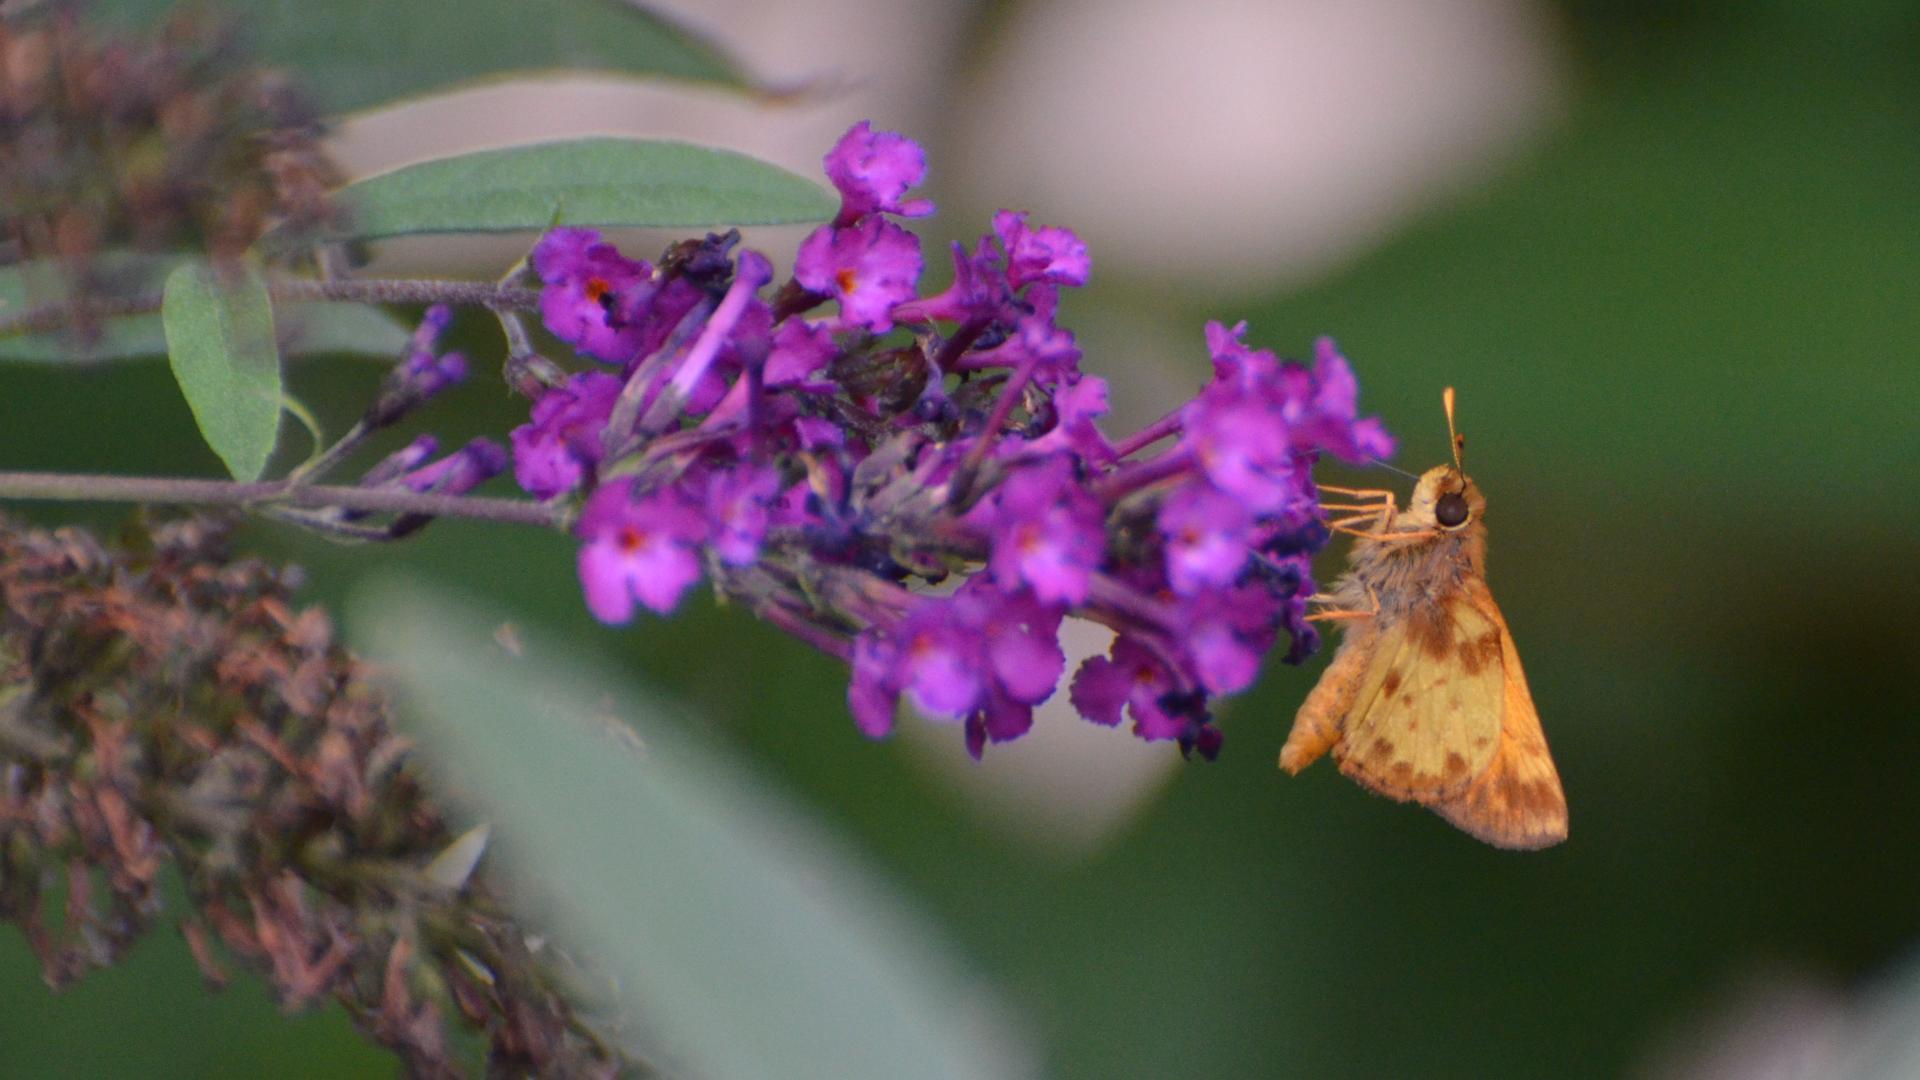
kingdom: Animalia
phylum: Arthropoda
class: Insecta
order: Lepidoptera
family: Hesperiidae
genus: Lon
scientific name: Lon zabulon
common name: Zabulon skipper
